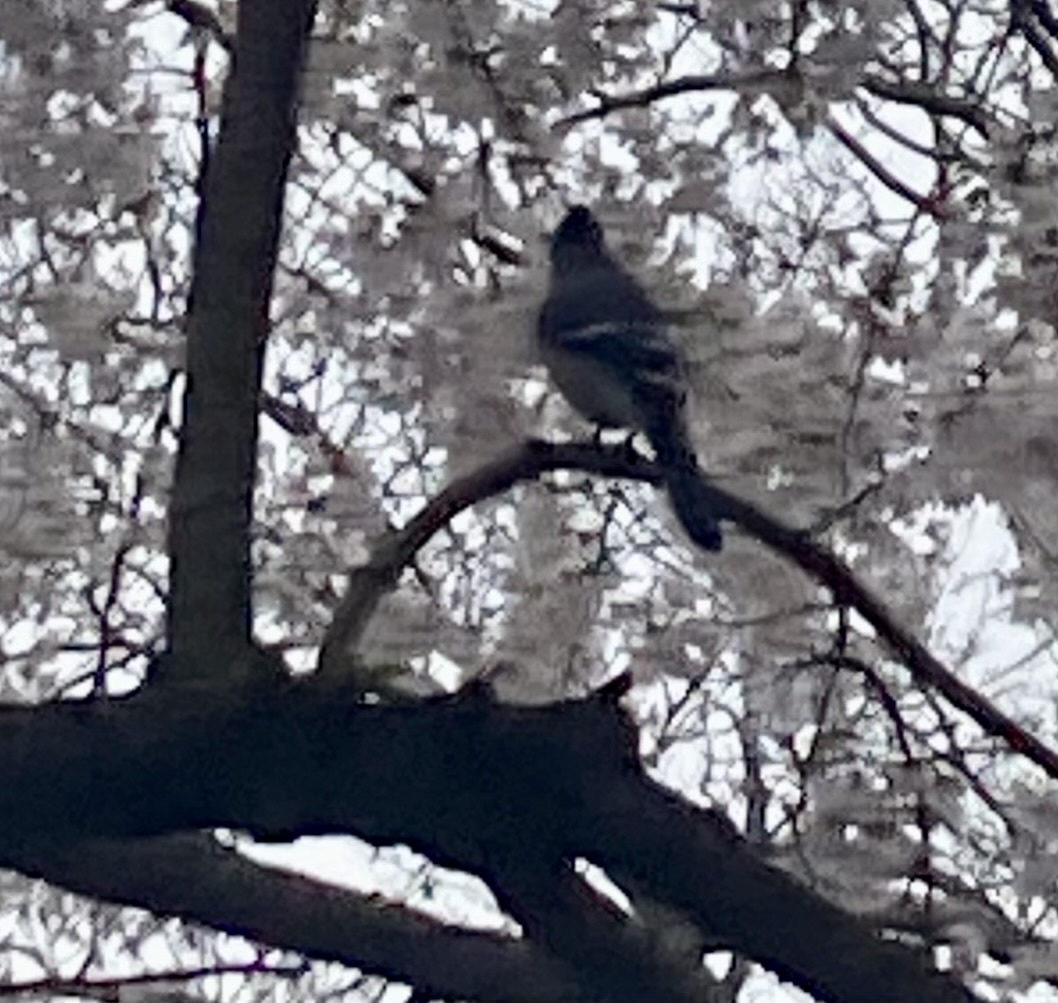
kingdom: Animalia
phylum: Chordata
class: Aves
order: Passeriformes
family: Corvidae
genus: Cyanocitta
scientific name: Cyanocitta cristata
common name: Blue jay
